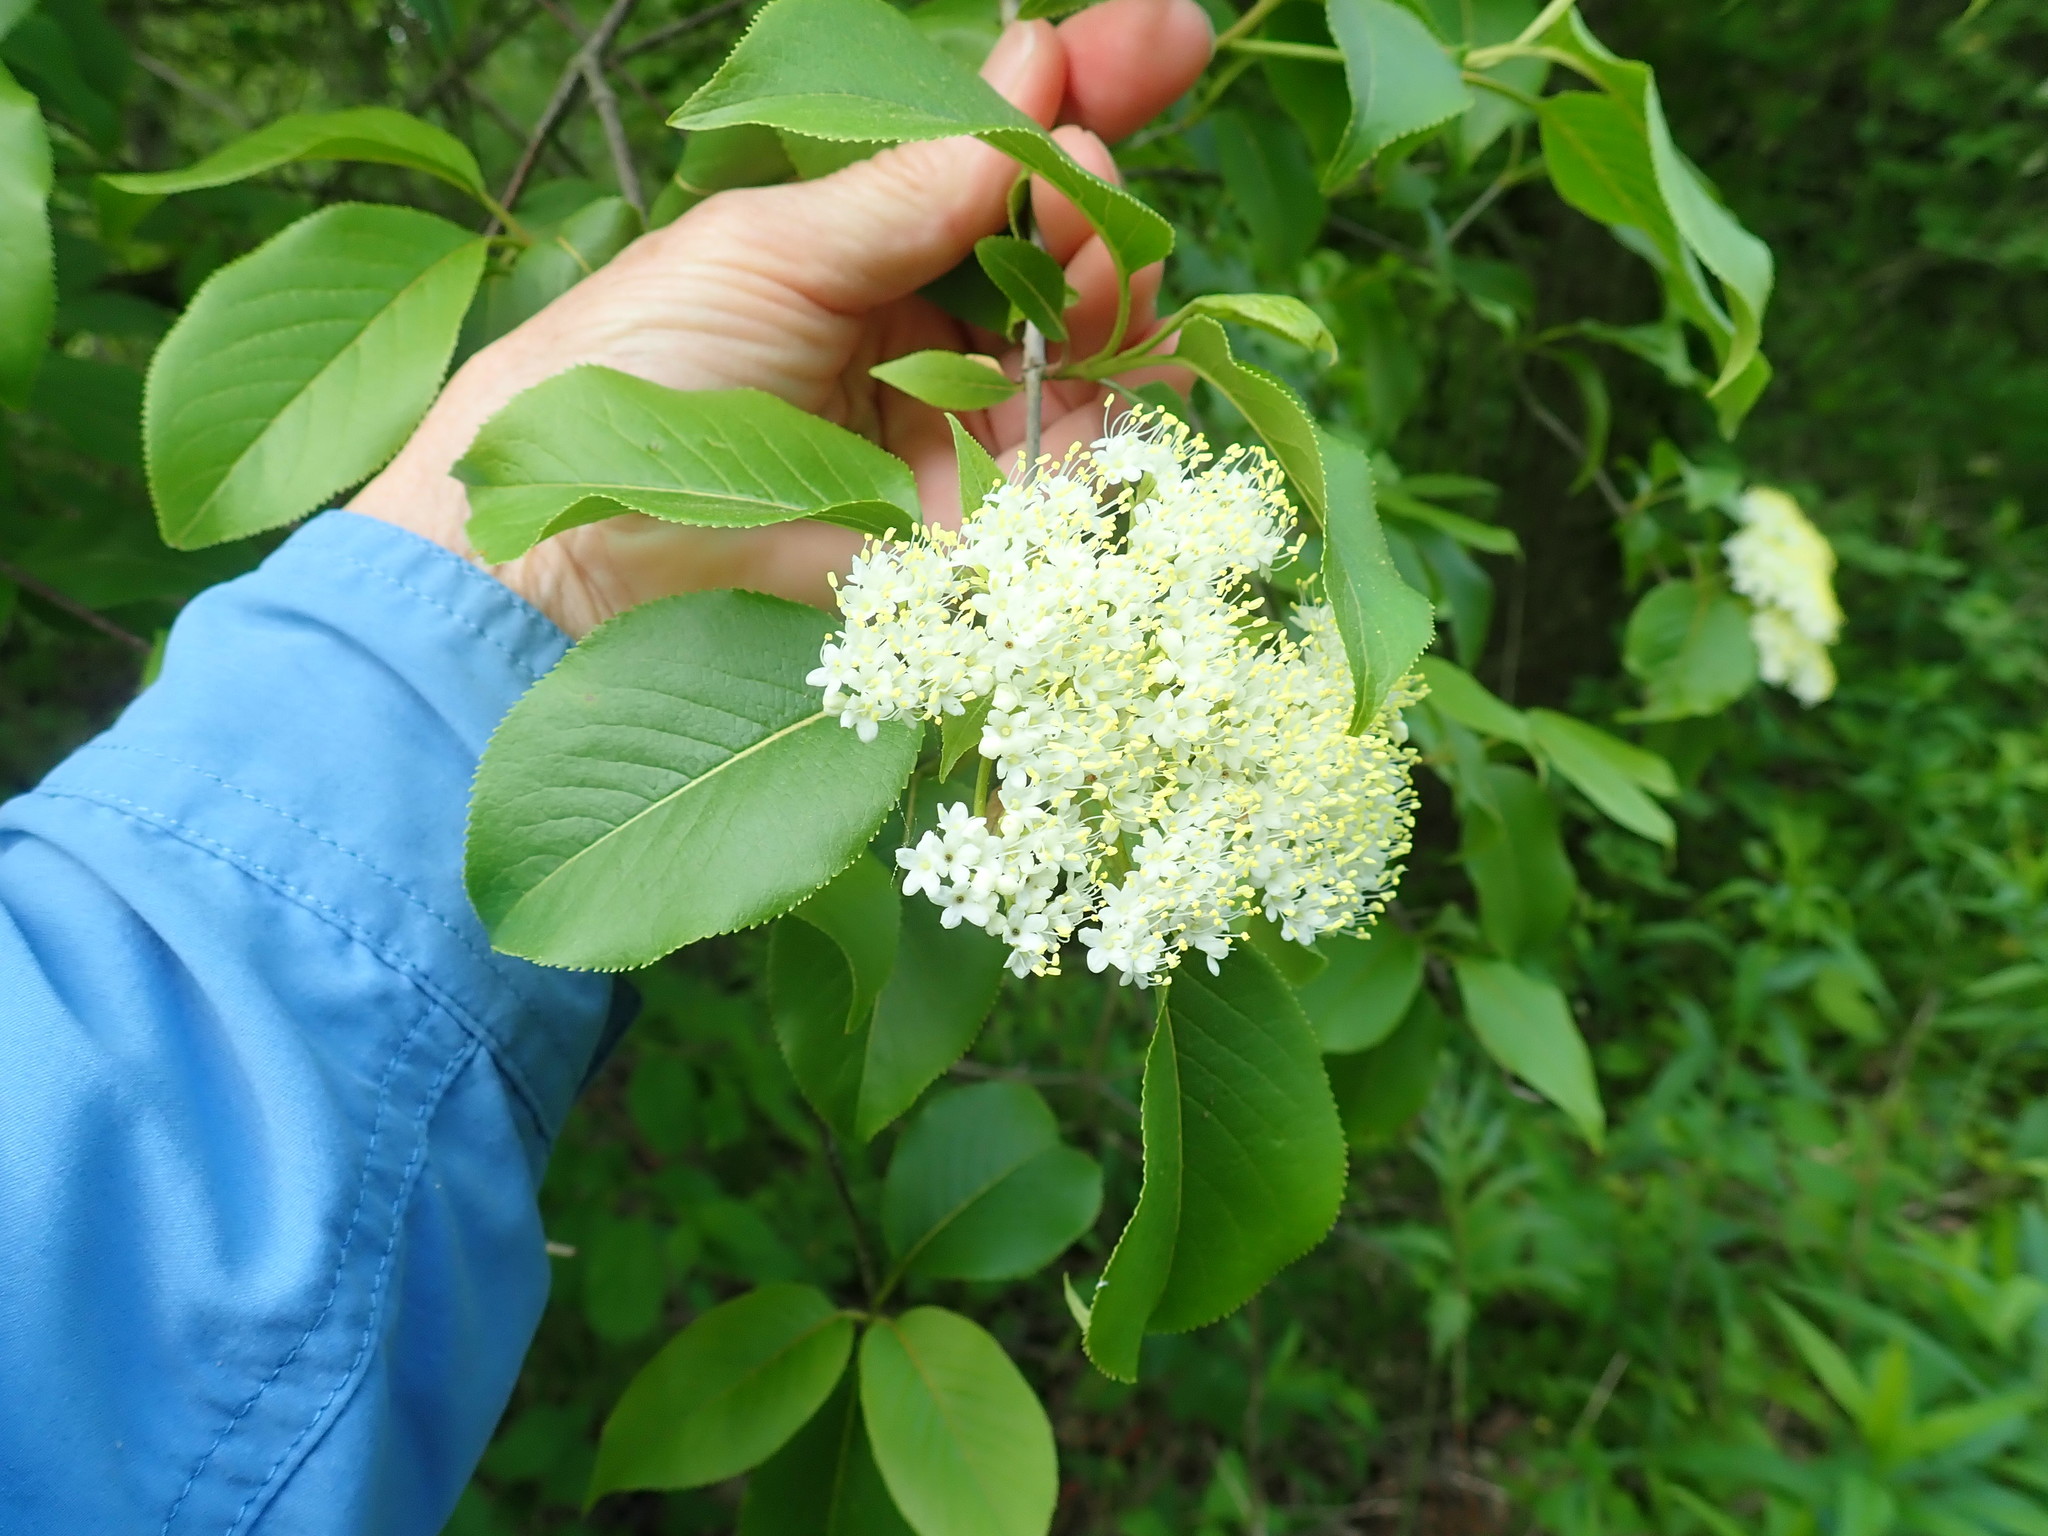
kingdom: Plantae
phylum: Tracheophyta
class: Magnoliopsida
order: Dipsacales
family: Viburnaceae
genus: Viburnum
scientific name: Viburnum lentago
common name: Black haw
